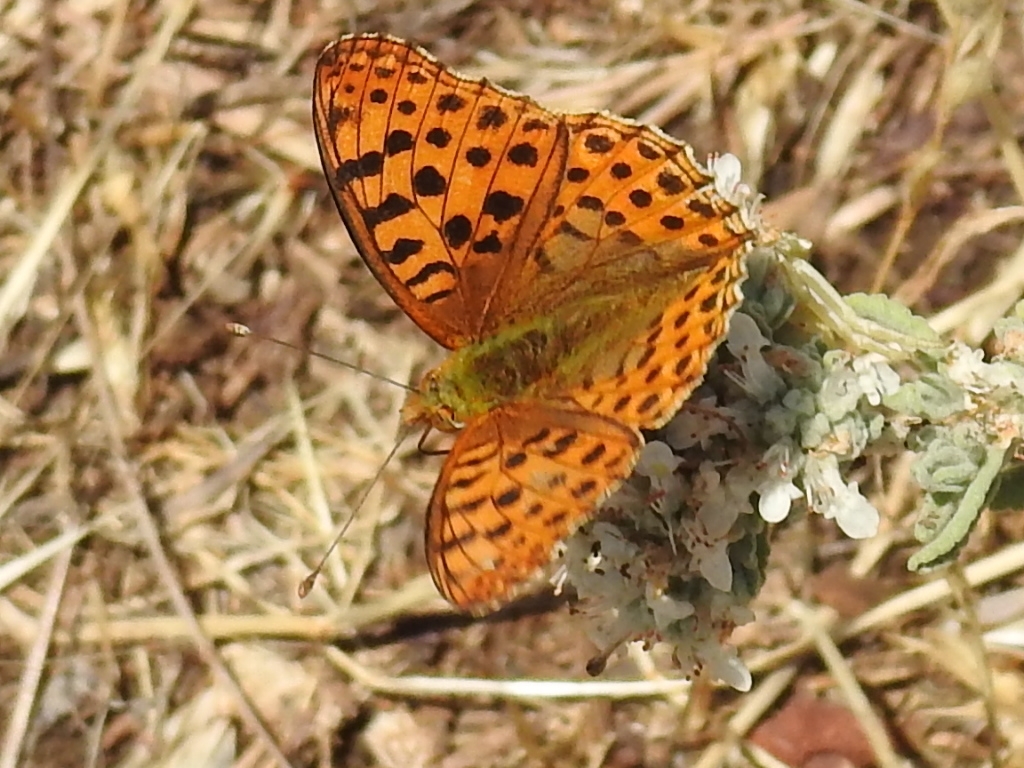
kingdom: Animalia
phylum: Arthropoda
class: Insecta
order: Lepidoptera
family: Nymphalidae
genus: Issoria
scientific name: Issoria lathonia
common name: Queen of spain fritillary
